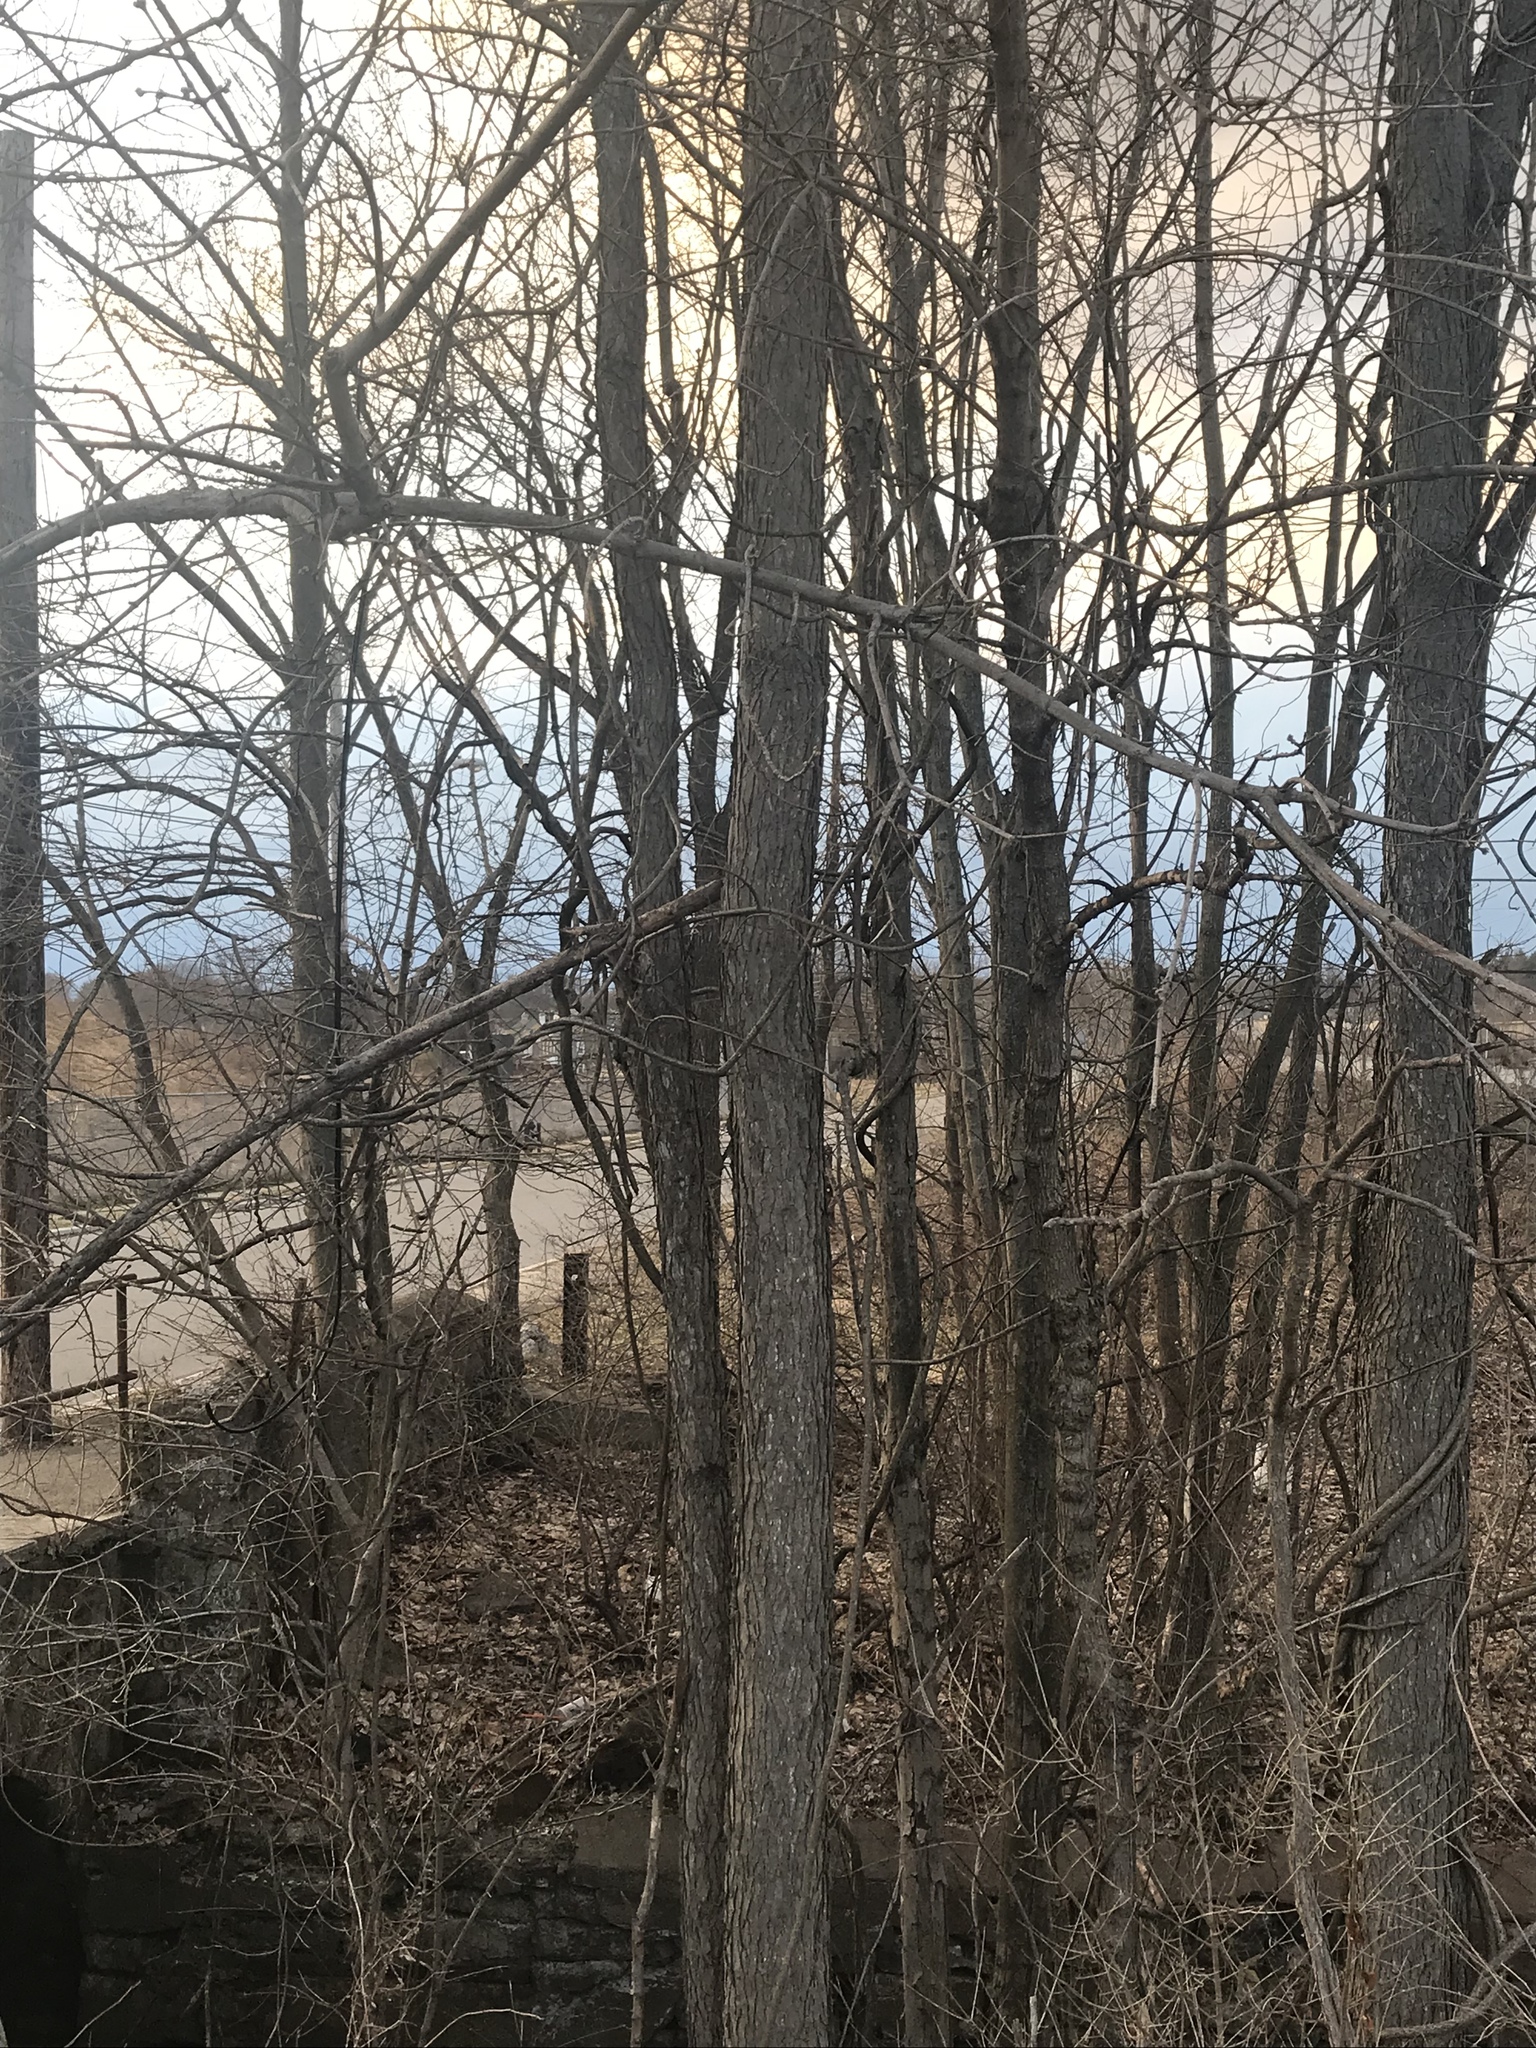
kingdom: Plantae
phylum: Tracheophyta
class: Magnoliopsida
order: Fabales
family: Fabaceae
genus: Gymnocladus
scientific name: Gymnocladus dioicus
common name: Kentucky coffee-tree
